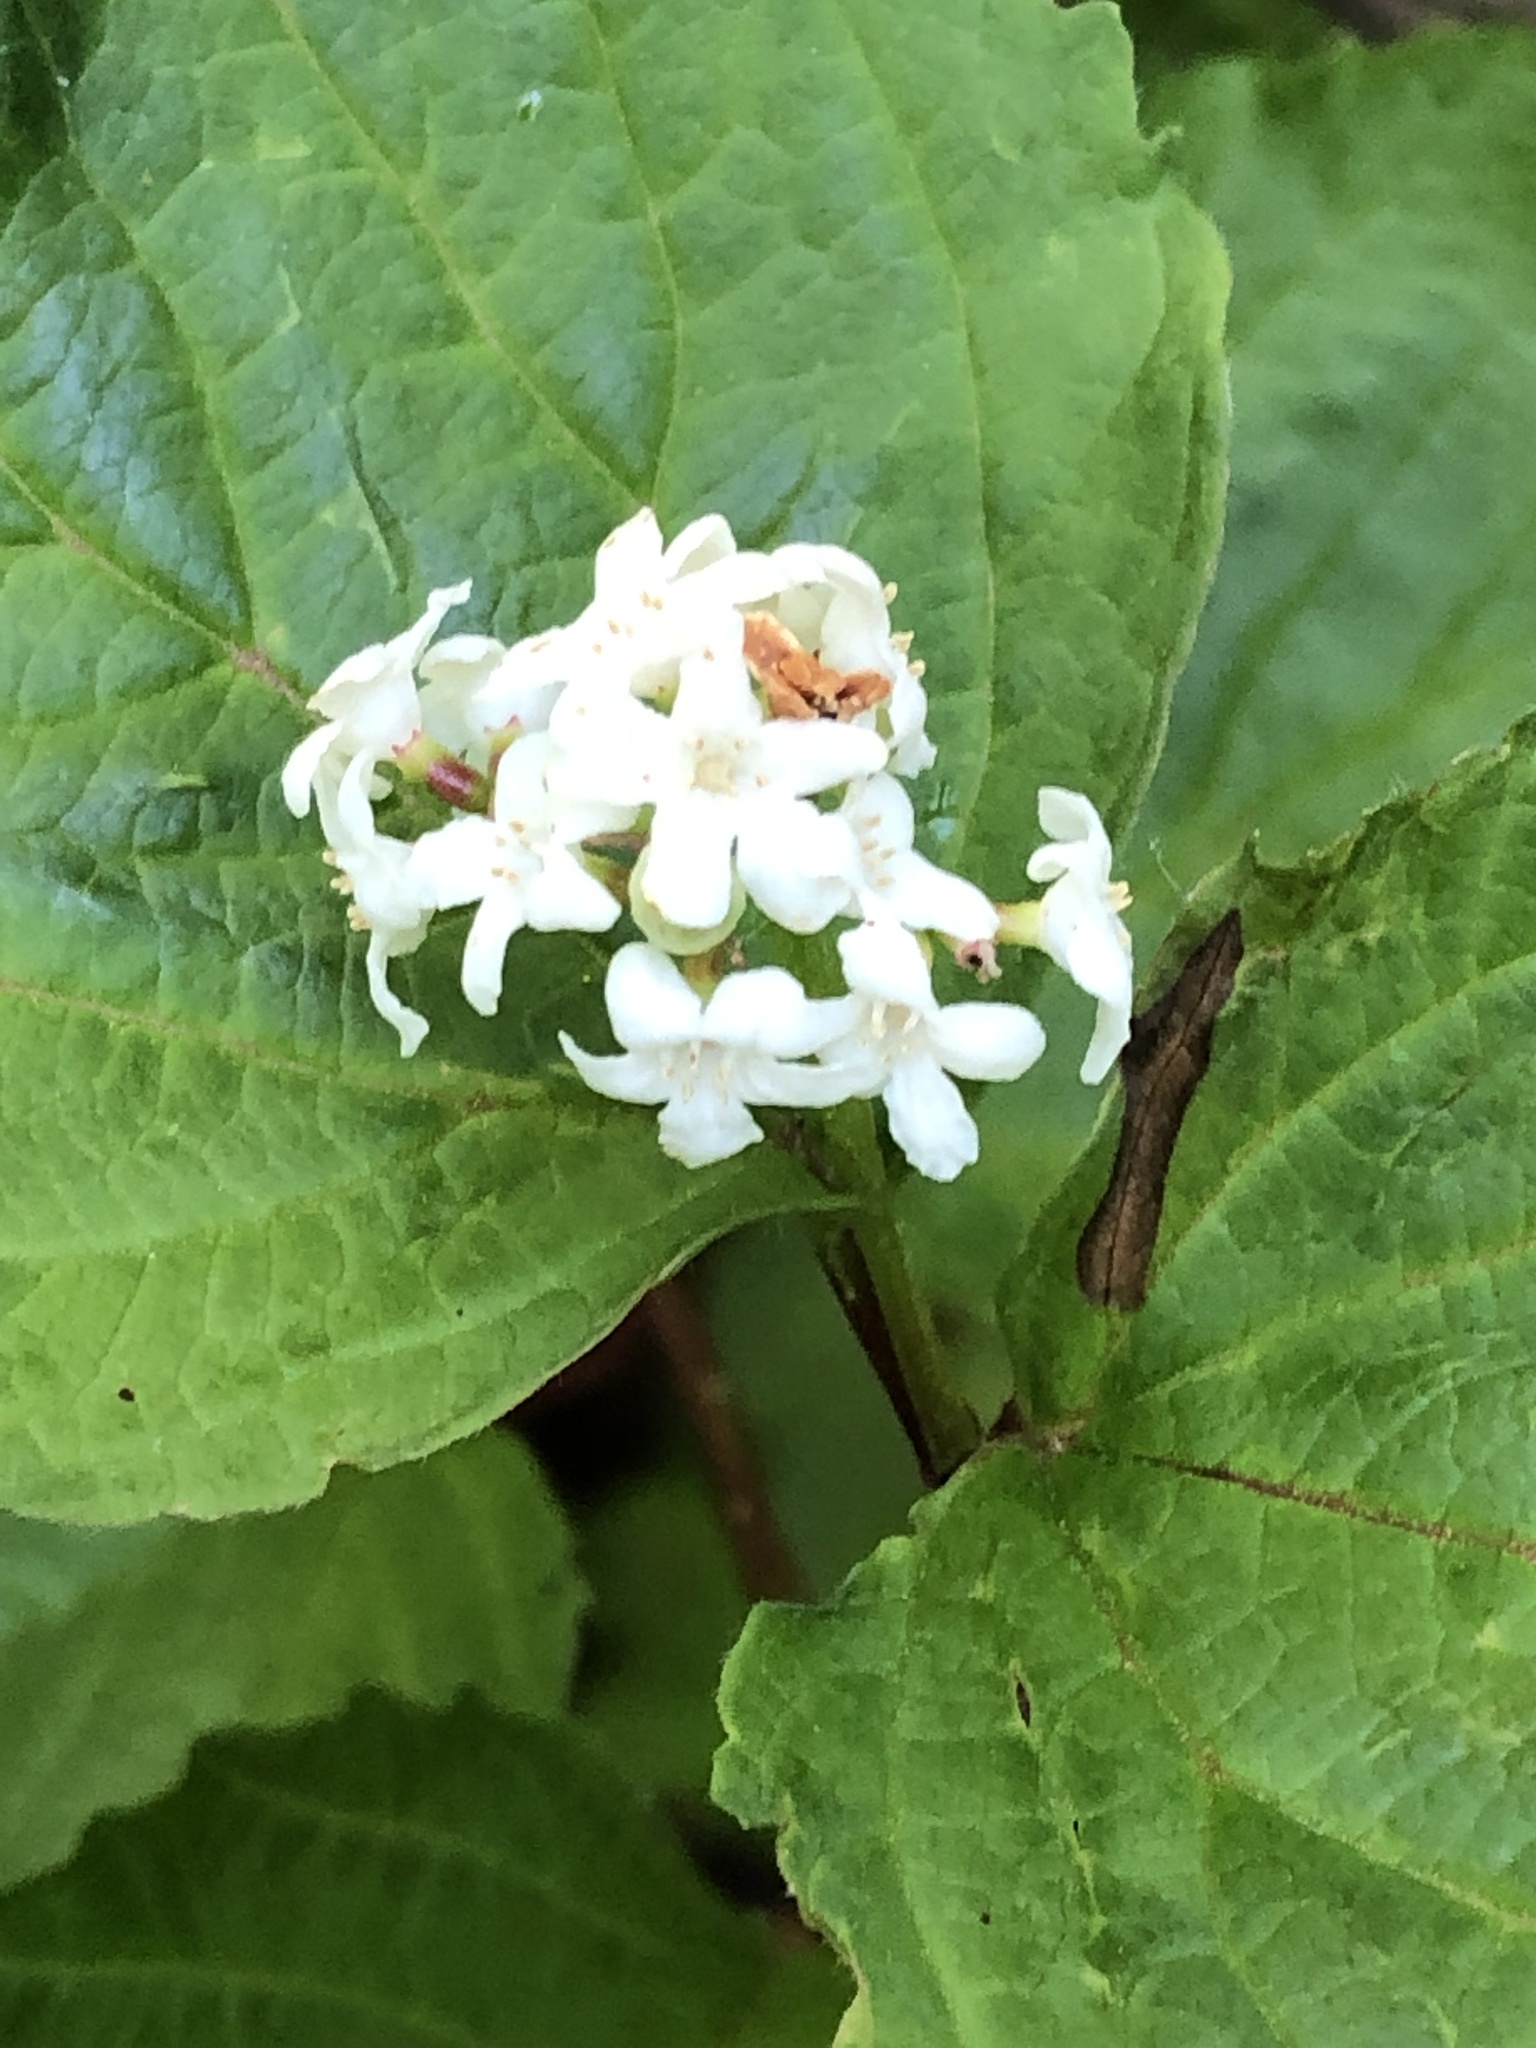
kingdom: Plantae
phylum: Tracheophyta
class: Magnoliopsida
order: Dipsacales
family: Viburnaceae
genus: Viburnum
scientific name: Viburnum edule
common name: Mooseberry
